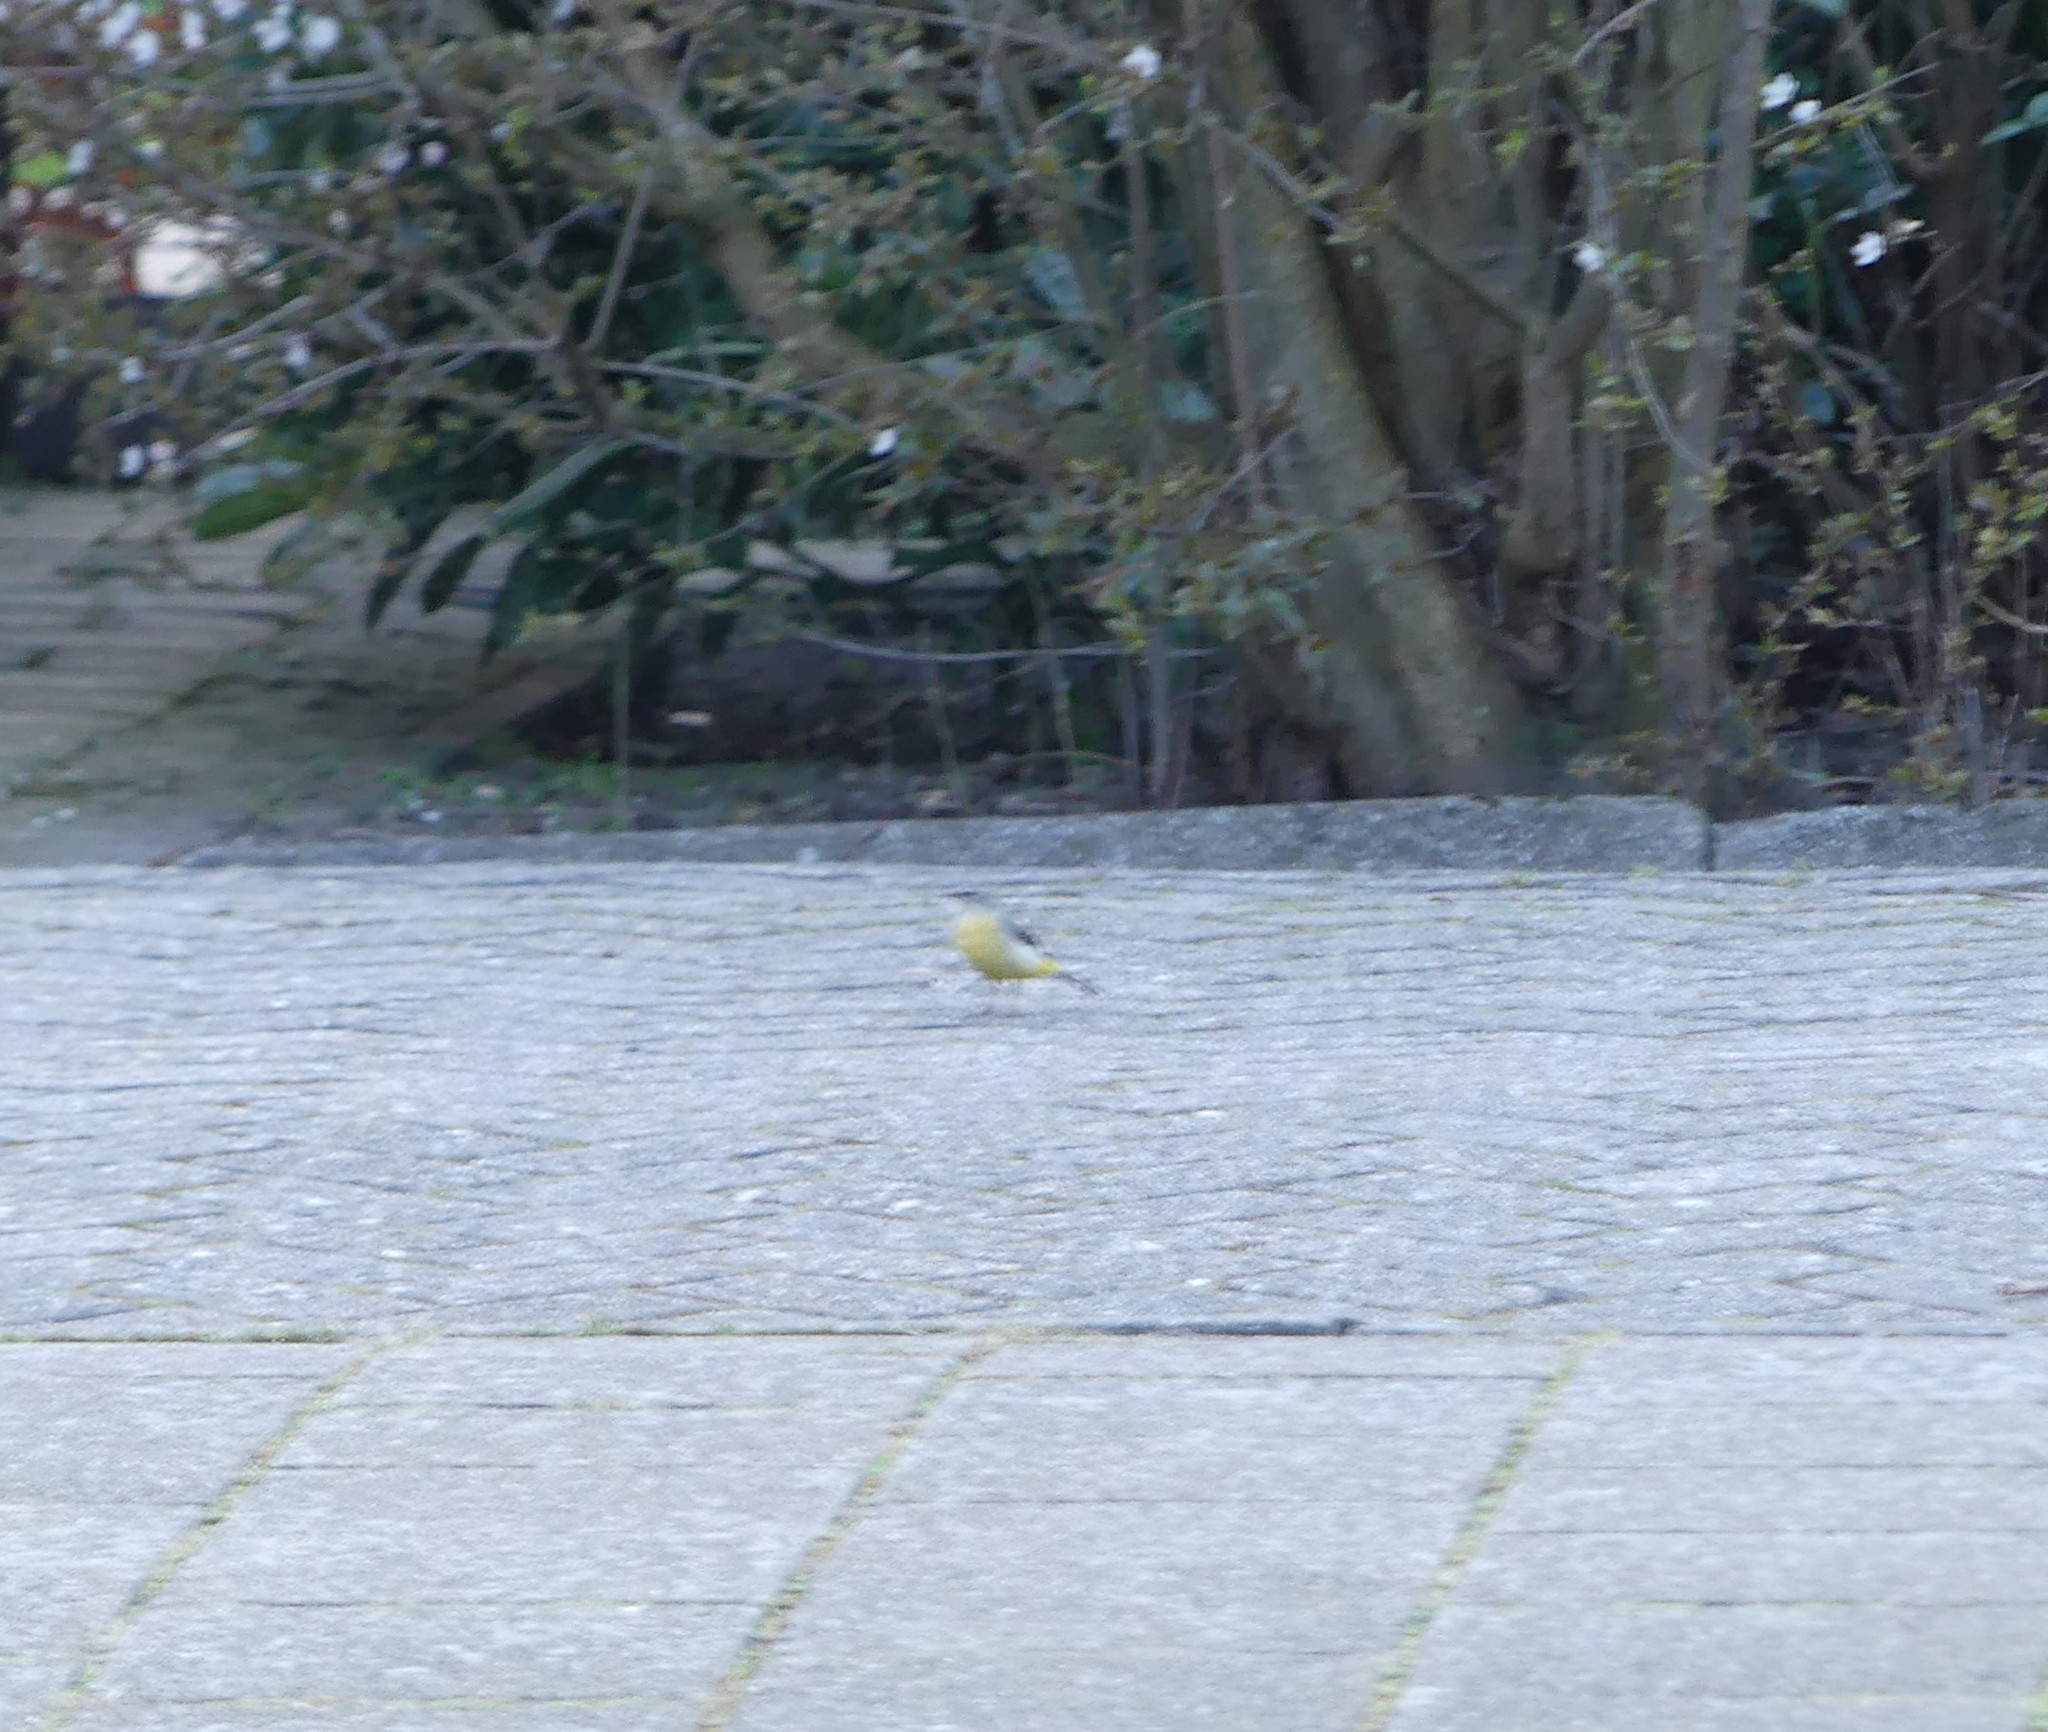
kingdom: Animalia
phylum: Chordata
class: Aves
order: Passeriformes
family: Motacillidae
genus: Motacilla
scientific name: Motacilla cinerea
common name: Grey wagtail
